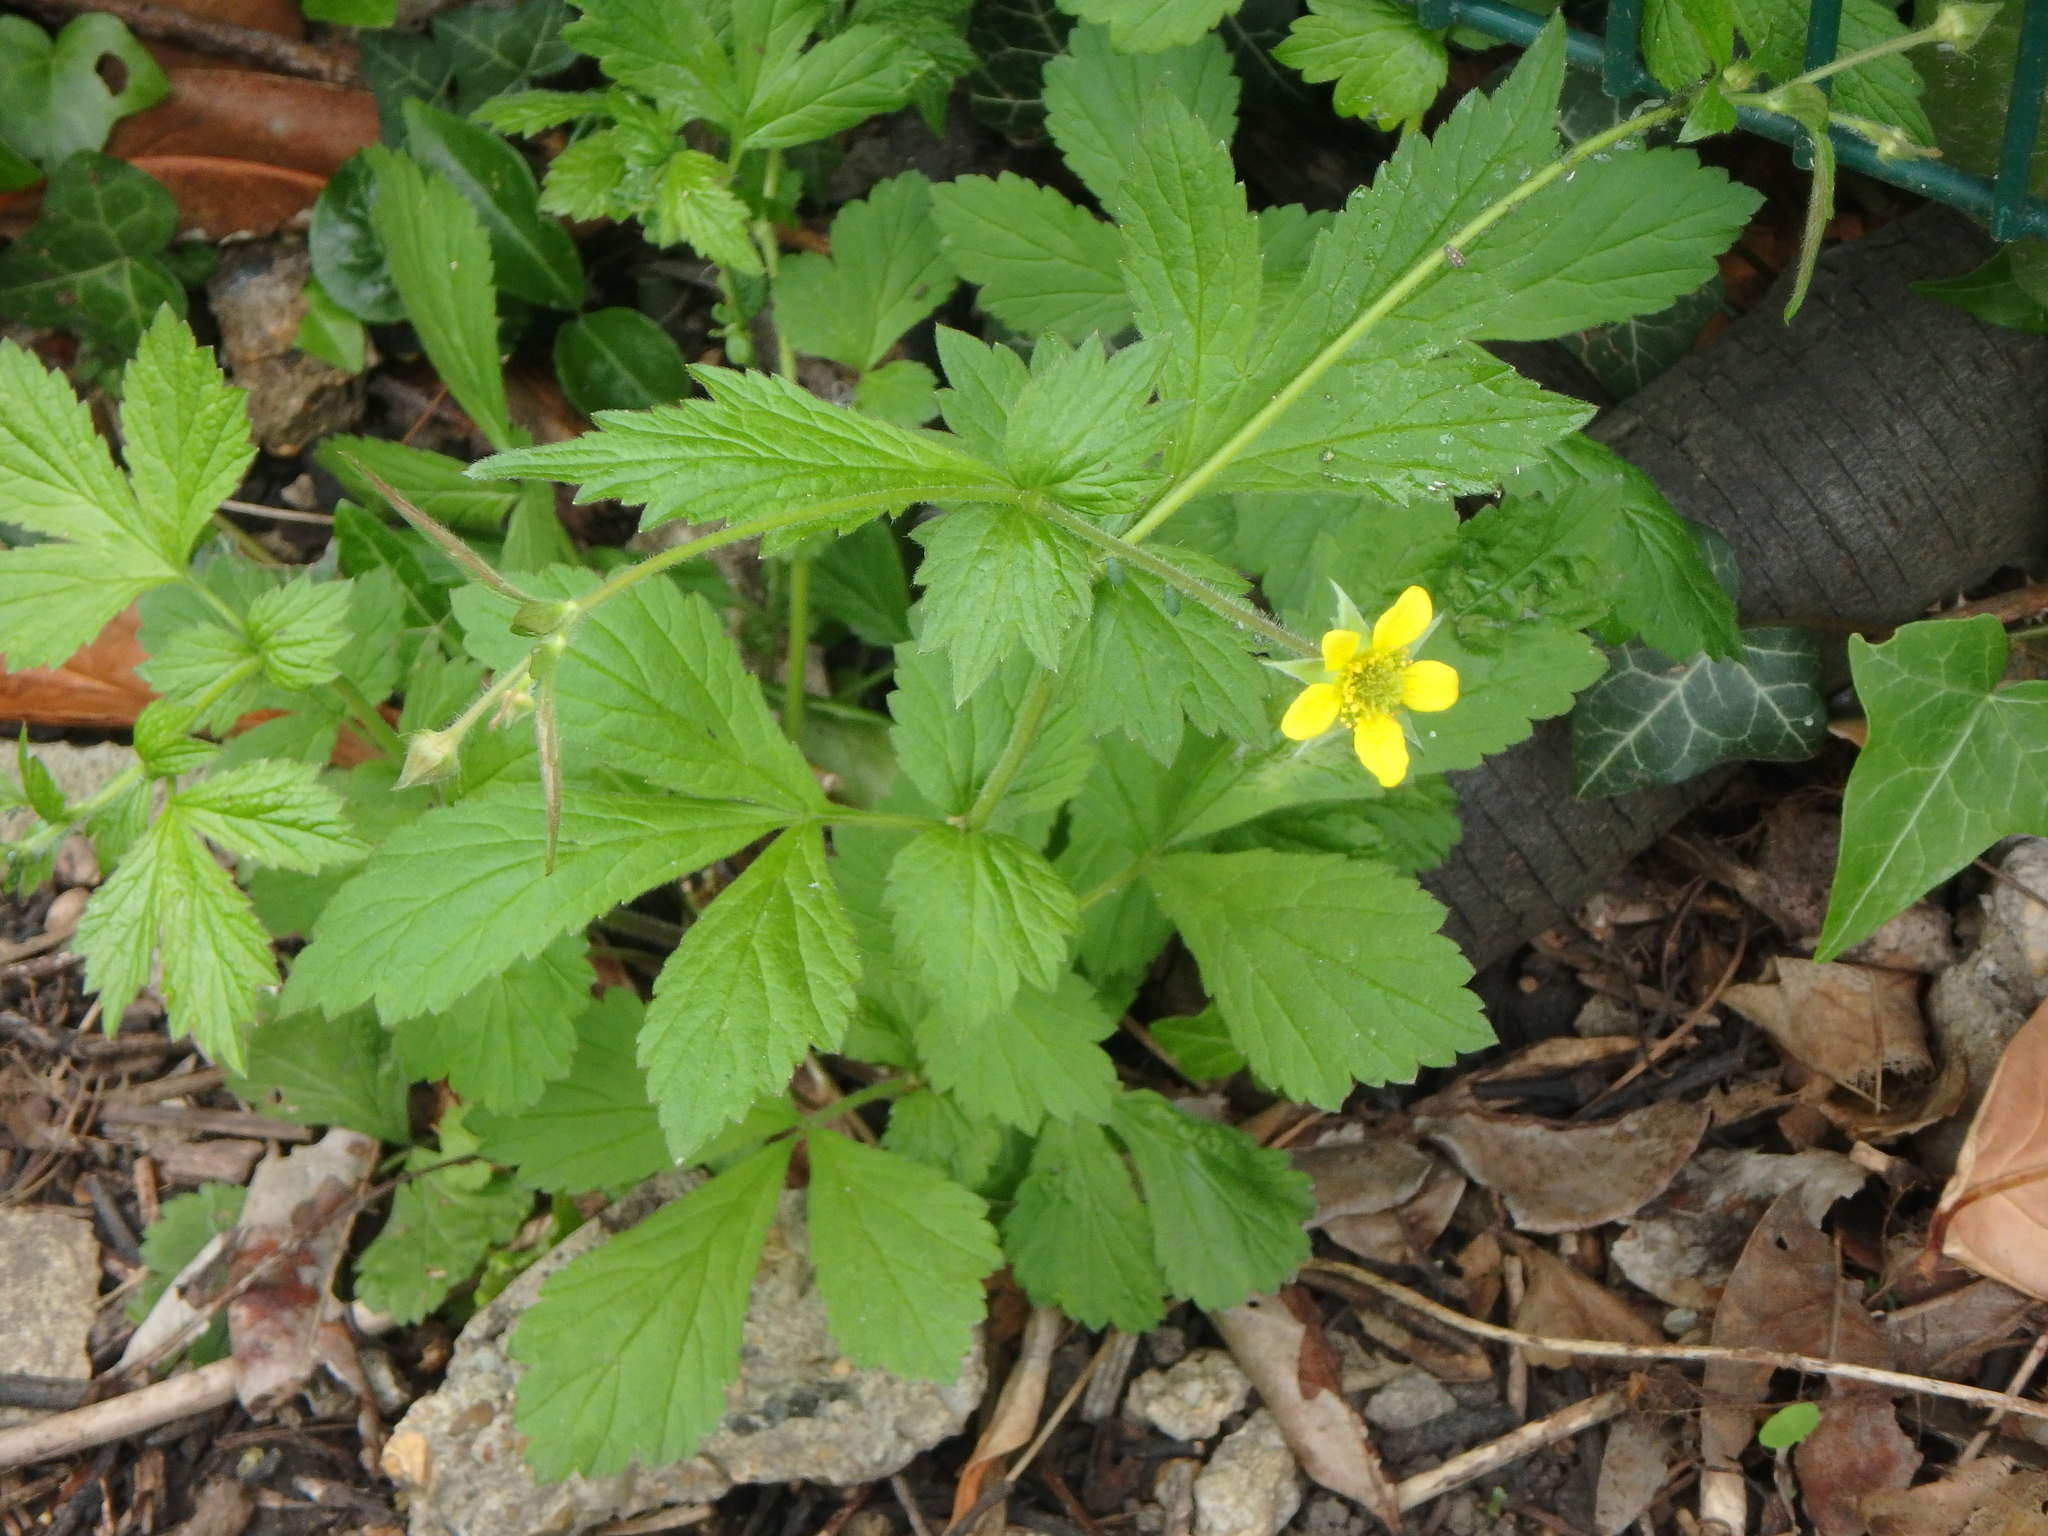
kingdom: Plantae
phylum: Tracheophyta
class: Magnoliopsida
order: Rosales
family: Rosaceae
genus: Geum
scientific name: Geum urbanum
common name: Wood avens
